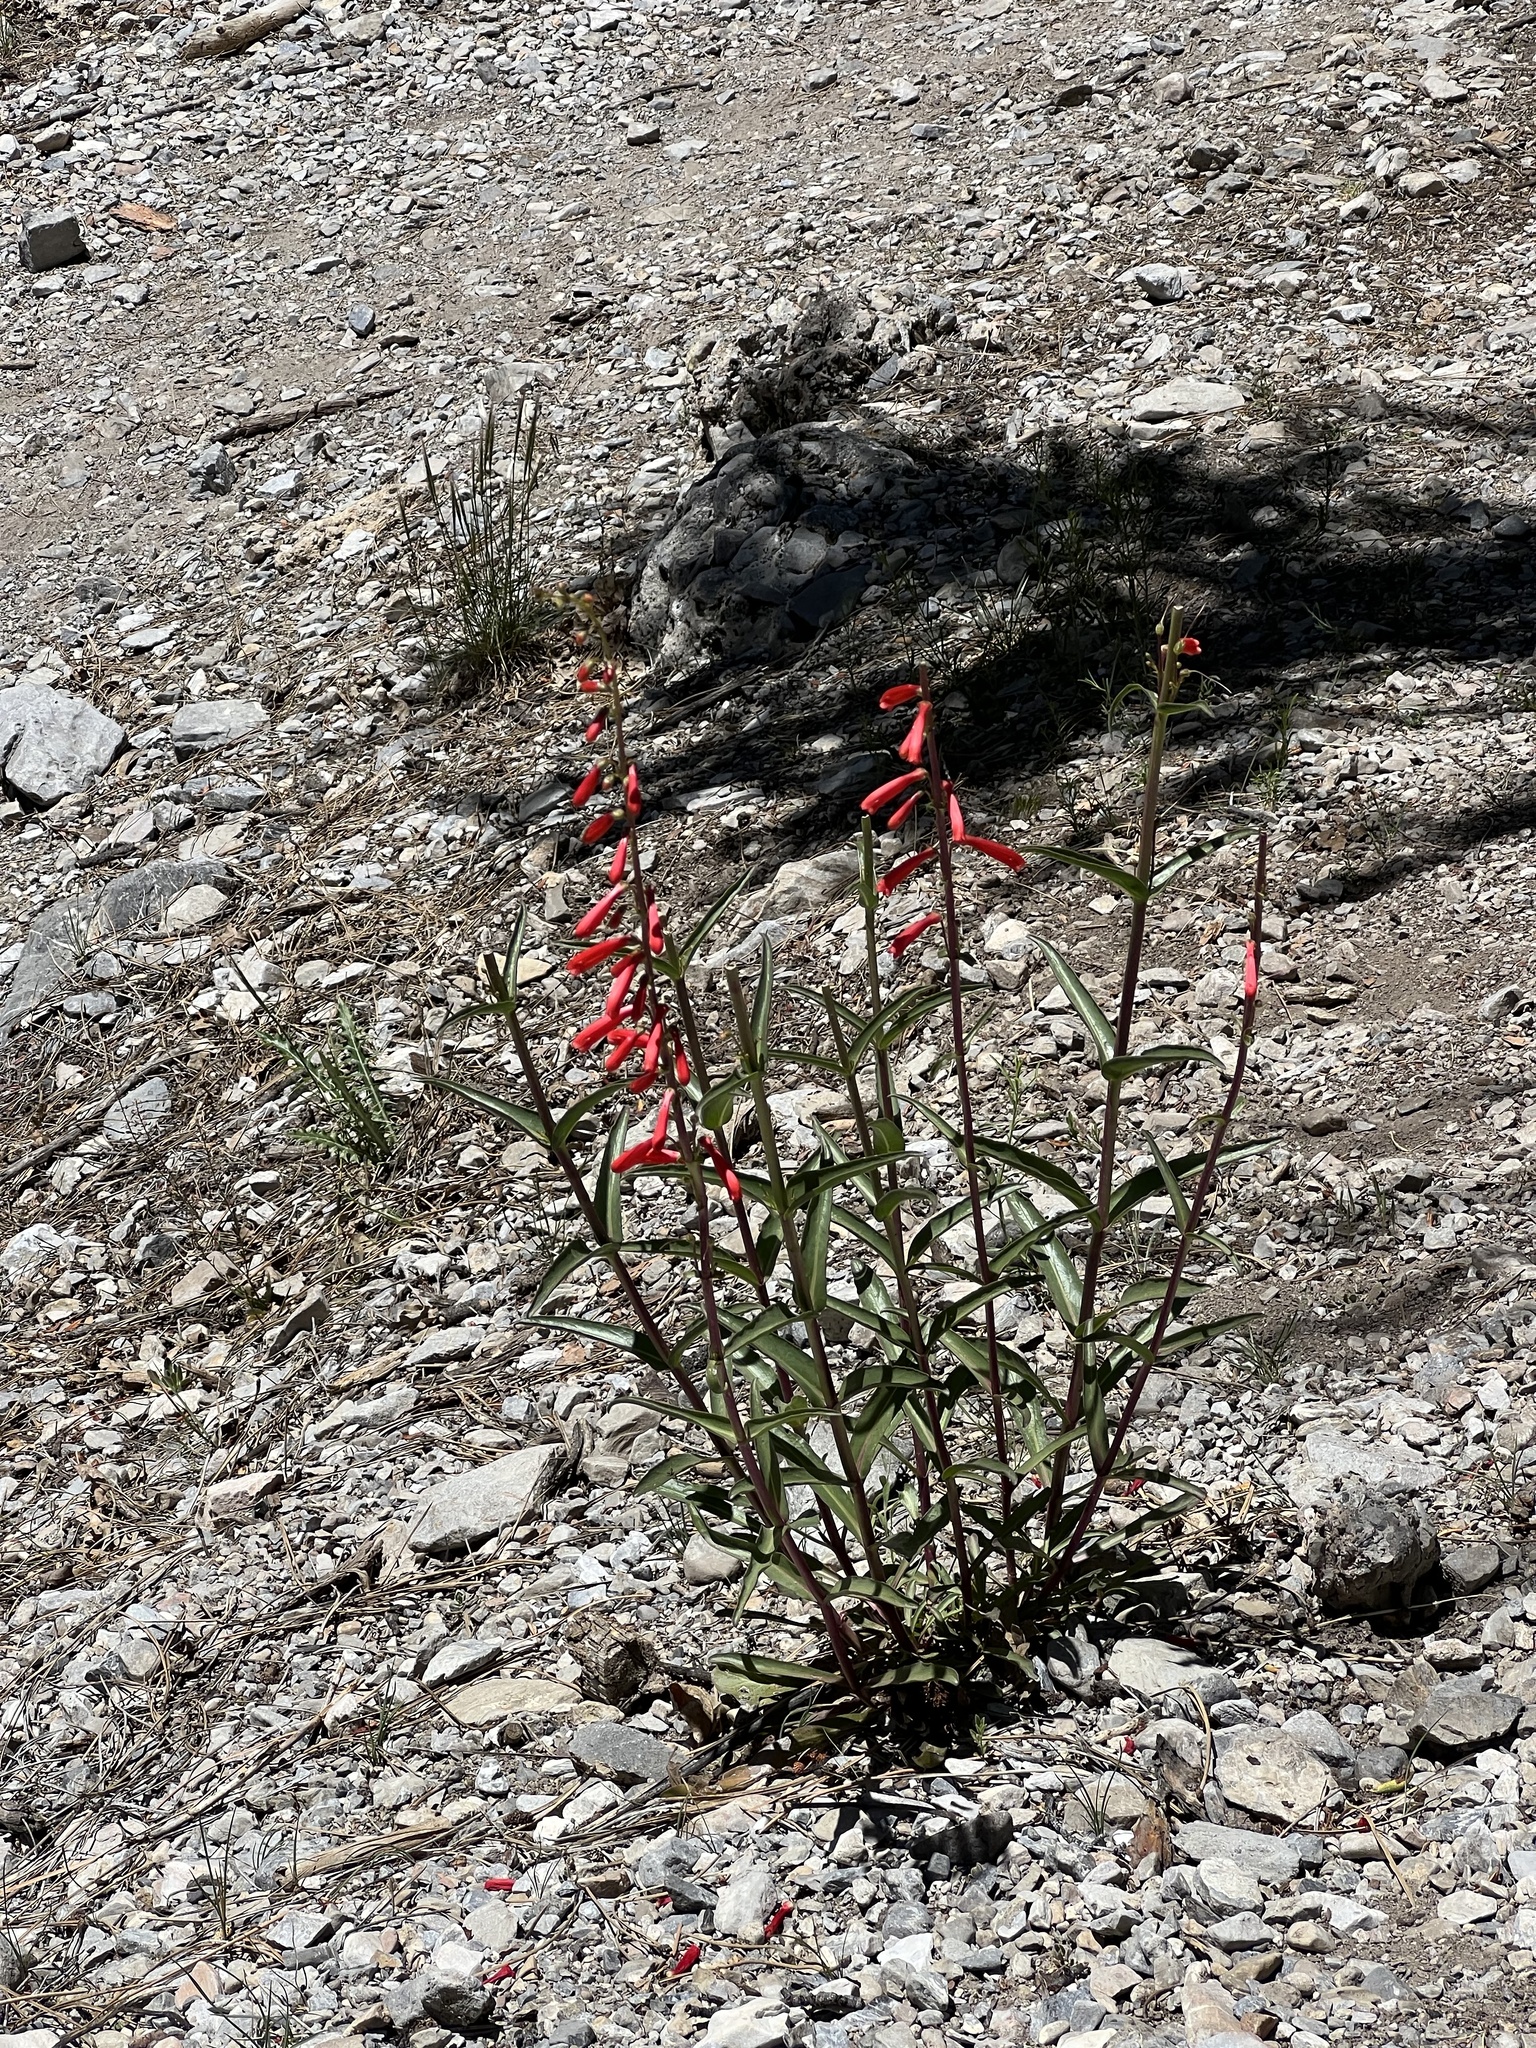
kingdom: Plantae
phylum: Tracheophyta
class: Magnoliopsida
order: Lamiales
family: Plantaginaceae
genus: Penstemon
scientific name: Penstemon eatonii
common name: Eaton's penstemon
